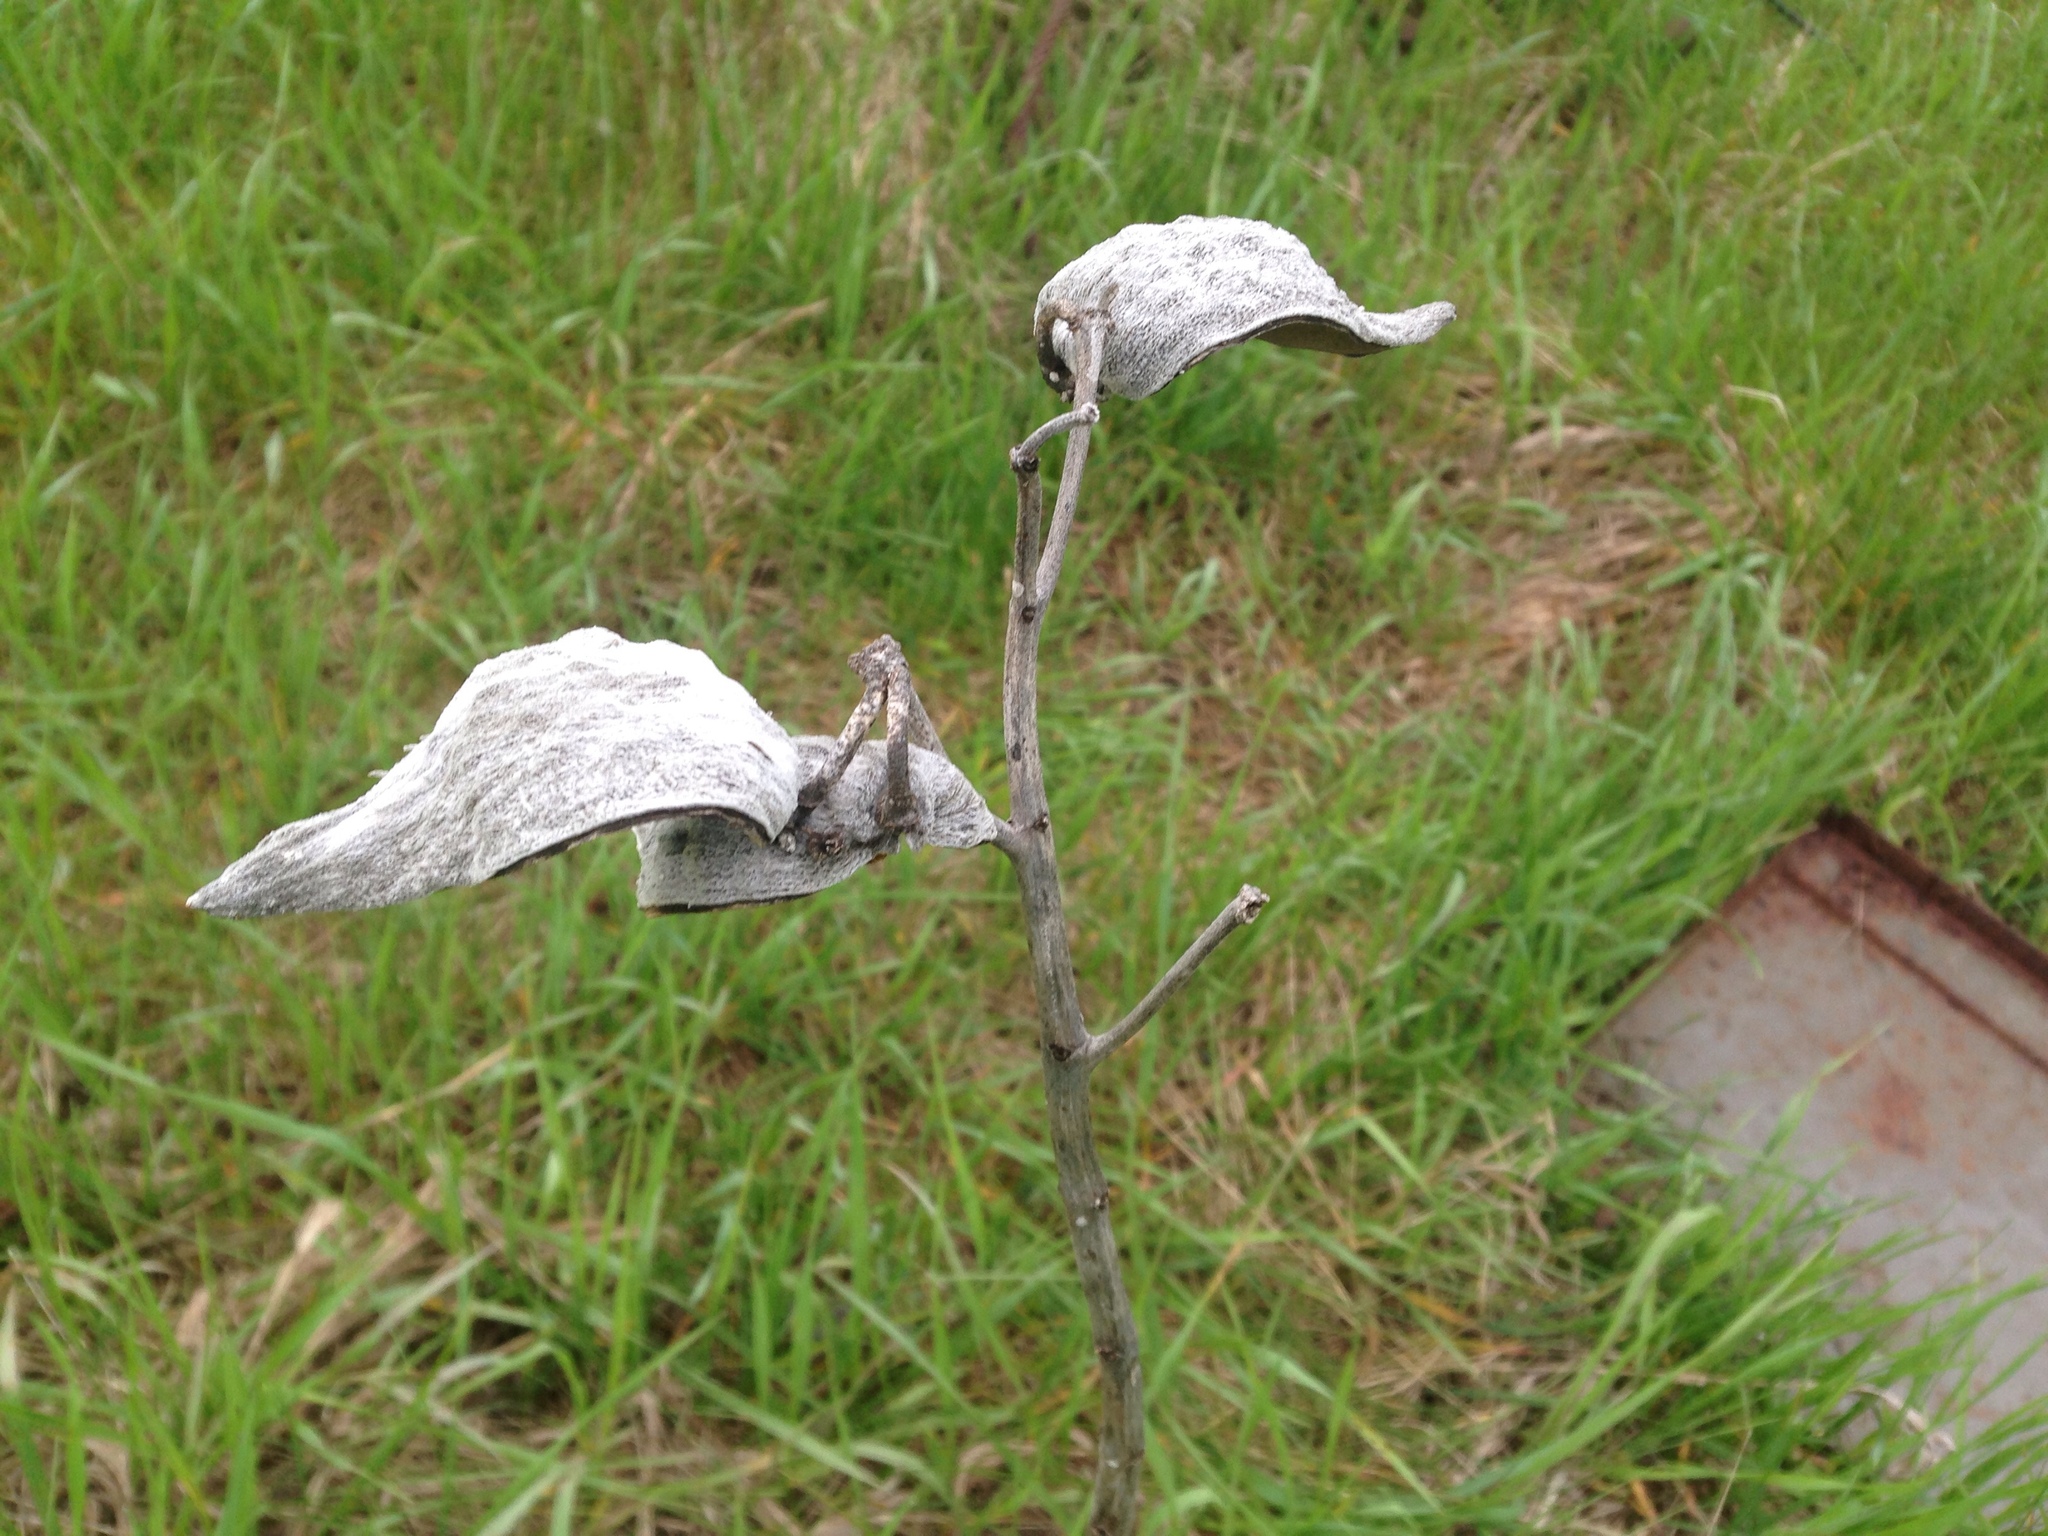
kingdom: Plantae
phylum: Tracheophyta
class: Magnoliopsida
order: Gentianales
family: Apocynaceae
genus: Asclepias
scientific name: Asclepias syriaca
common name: Common milkweed
